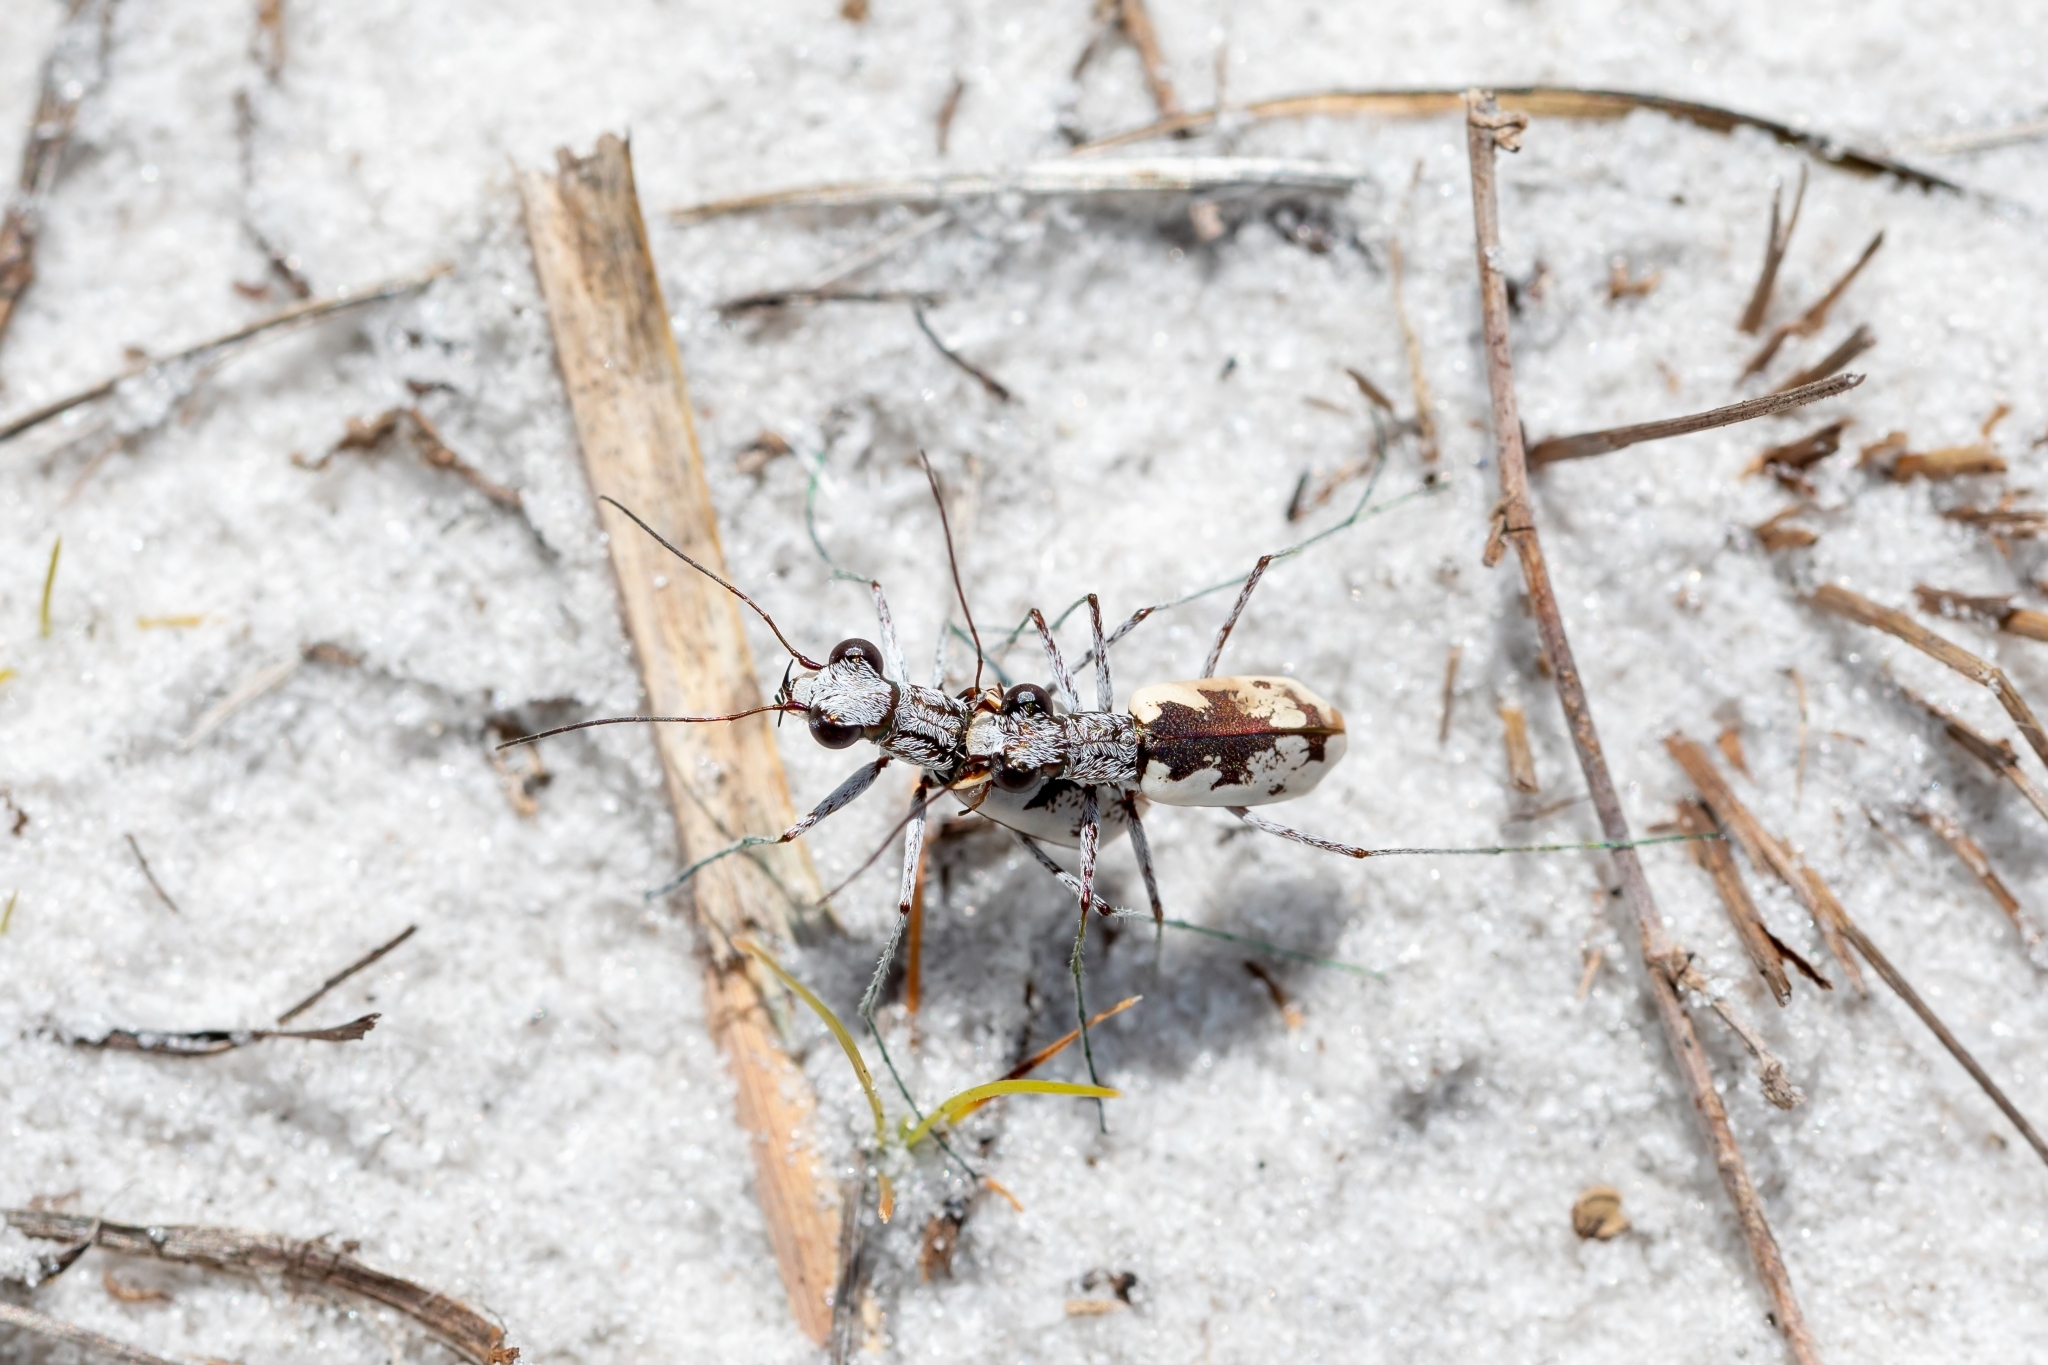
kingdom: Animalia
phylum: Arthropoda
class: Insecta
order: Coleoptera
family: Carabidae
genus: Ellipsoptera
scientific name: Ellipsoptera hirtilabris
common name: Moustached tiger beetle
